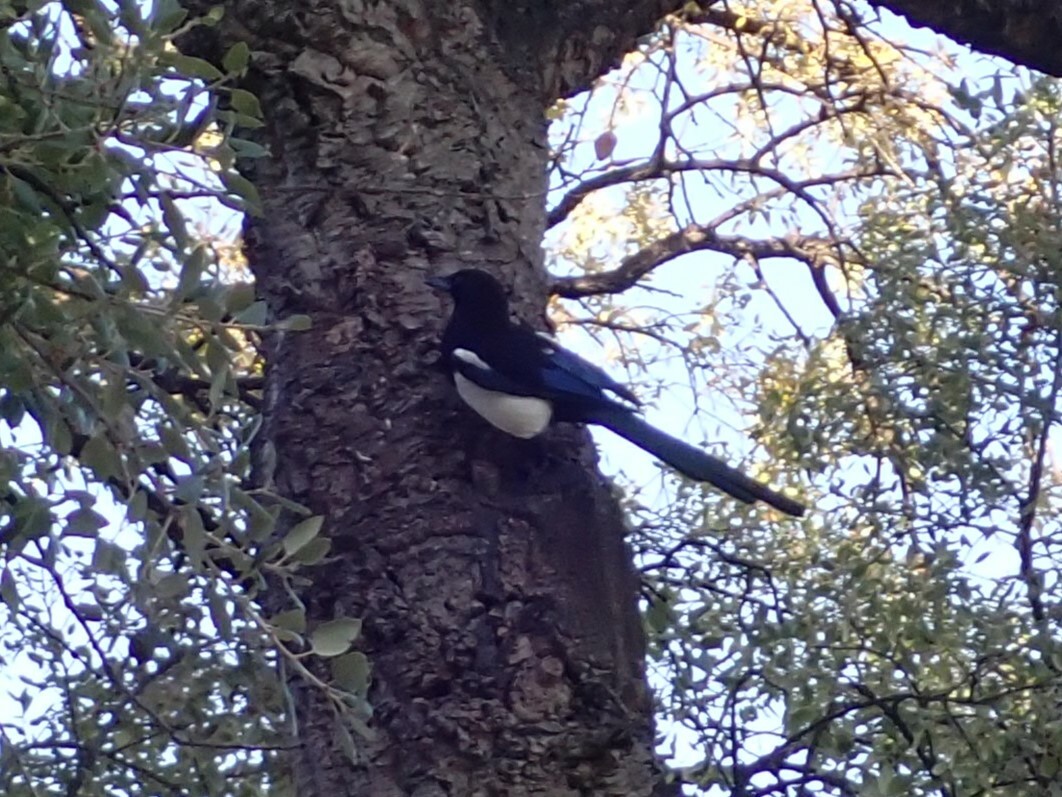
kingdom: Animalia
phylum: Chordata
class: Aves
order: Passeriformes
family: Corvidae
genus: Pica
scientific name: Pica pica
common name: Eurasian magpie
